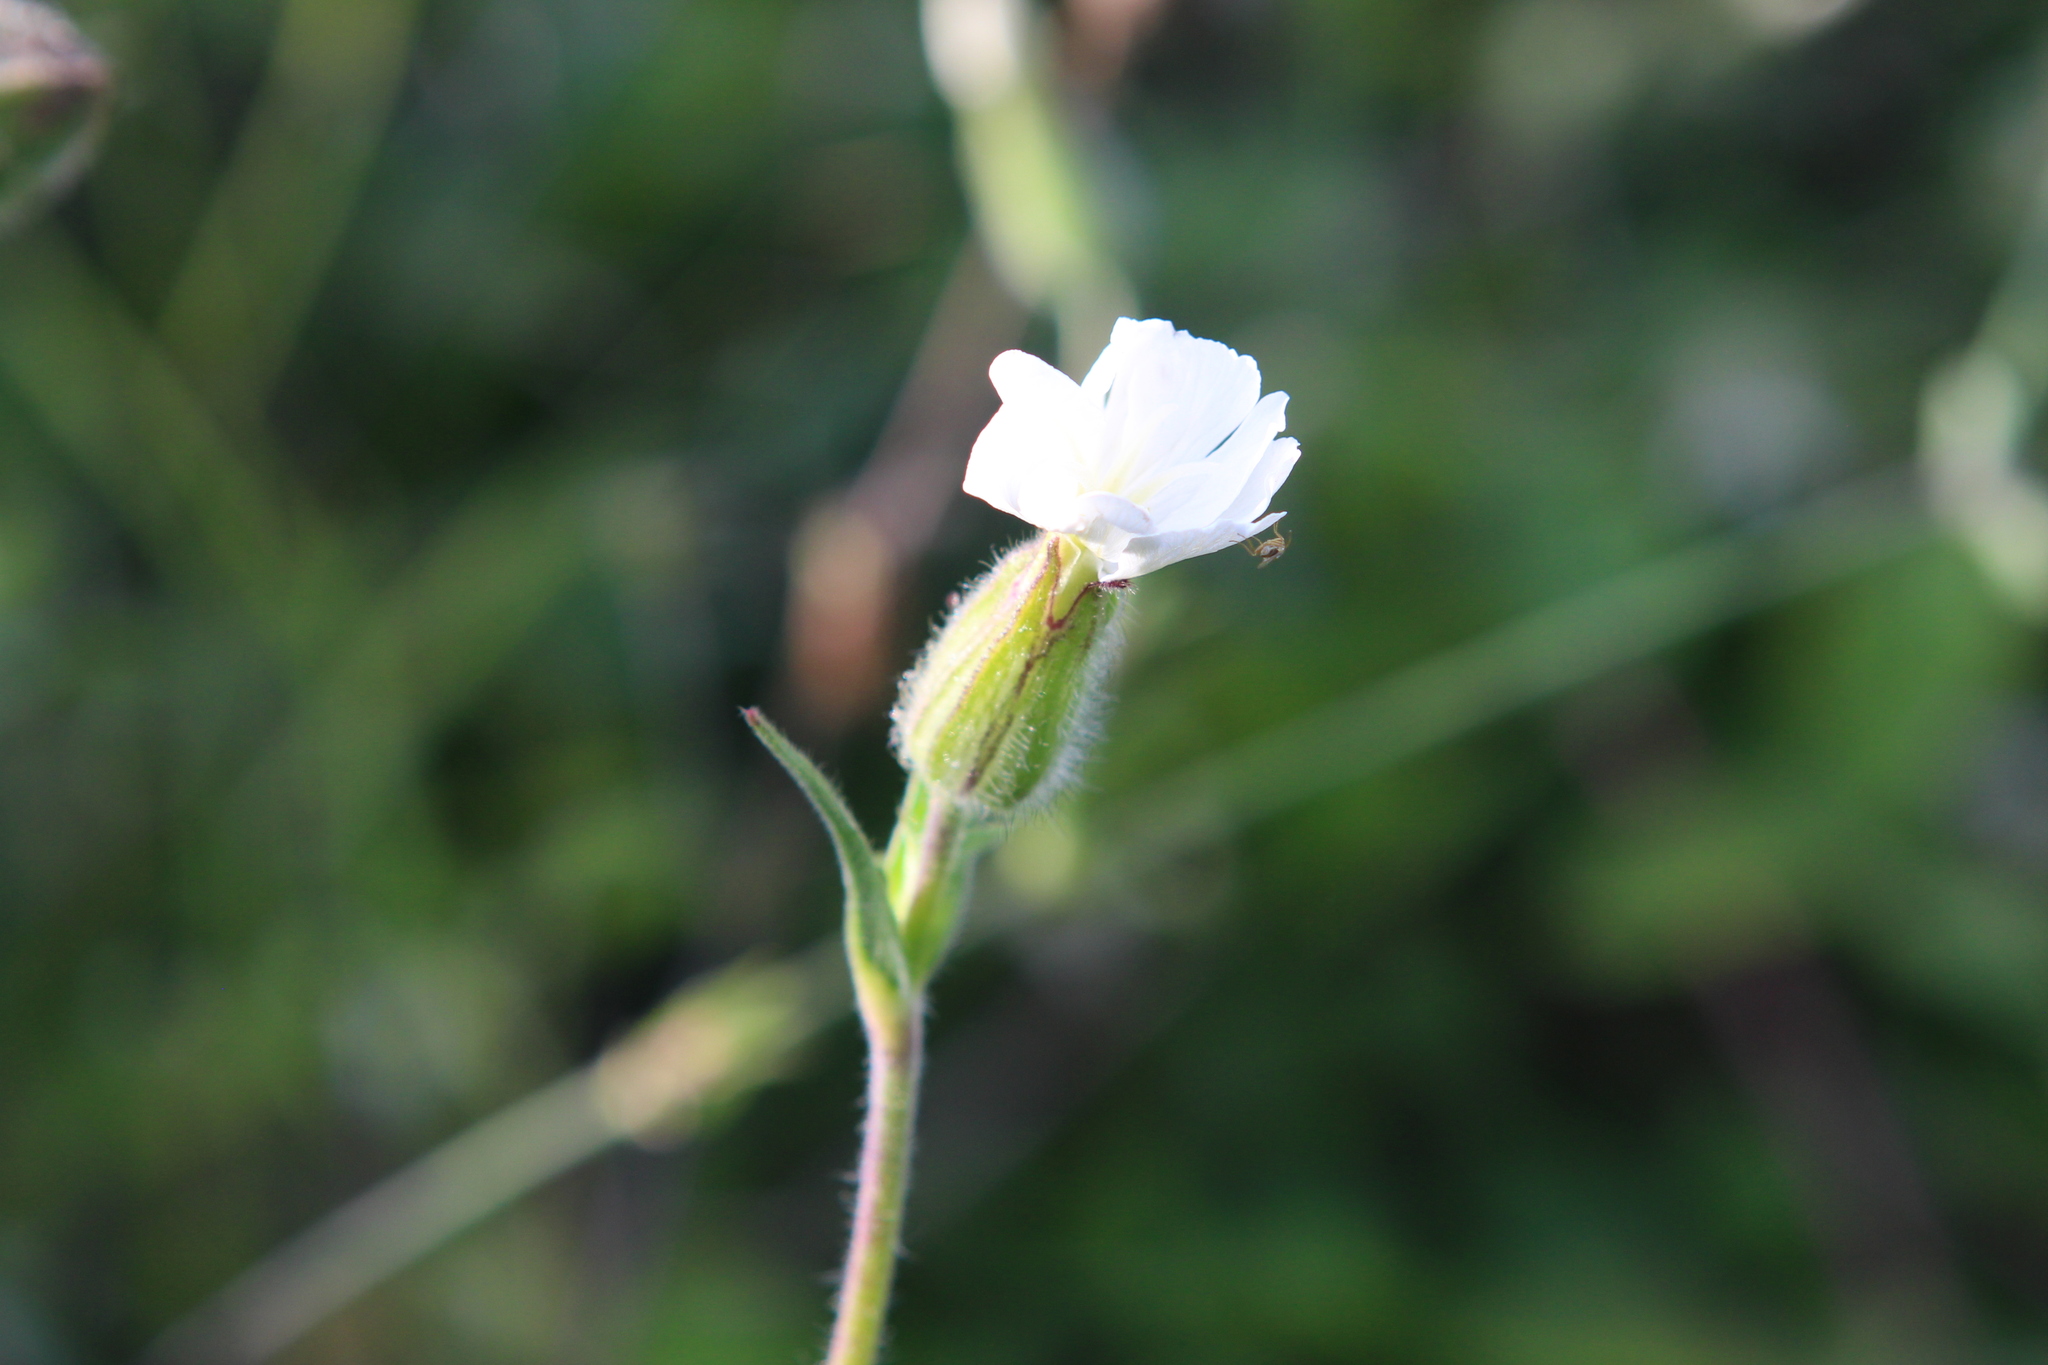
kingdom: Plantae
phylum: Tracheophyta
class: Magnoliopsida
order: Caryophyllales
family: Caryophyllaceae
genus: Silene
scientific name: Silene latifolia
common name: White campion
